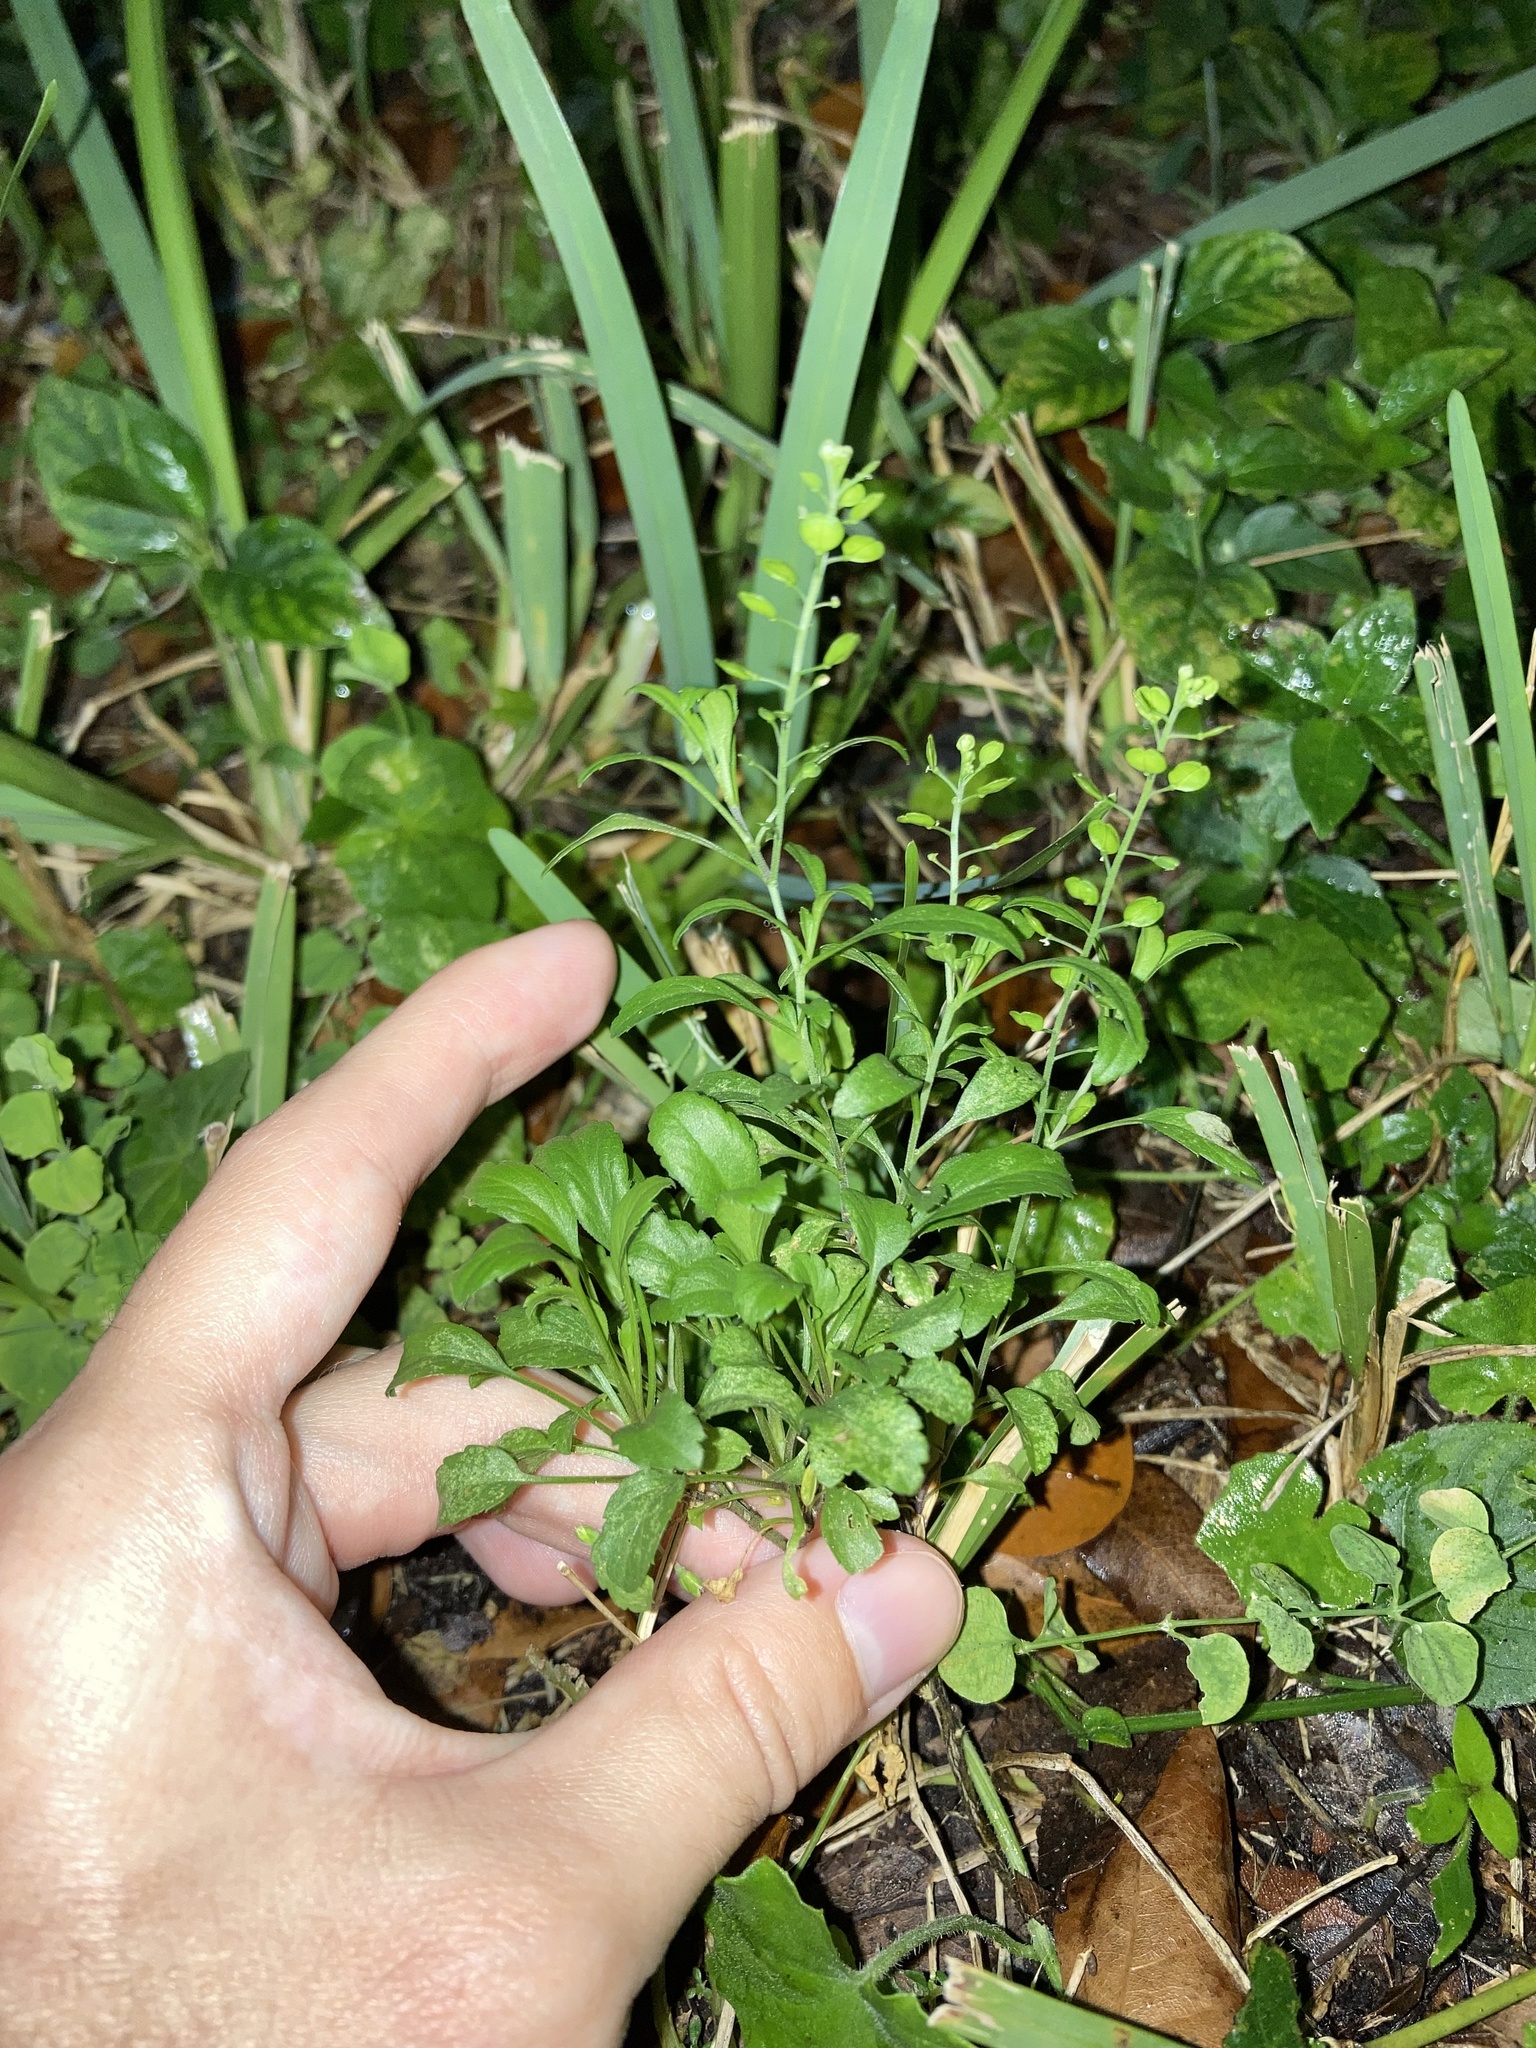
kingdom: Plantae
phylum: Tracheophyta
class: Magnoliopsida
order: Brassicales
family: Brassicaceae
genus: Lepidium
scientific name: Lepidium virginicum
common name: Least pepperwort
